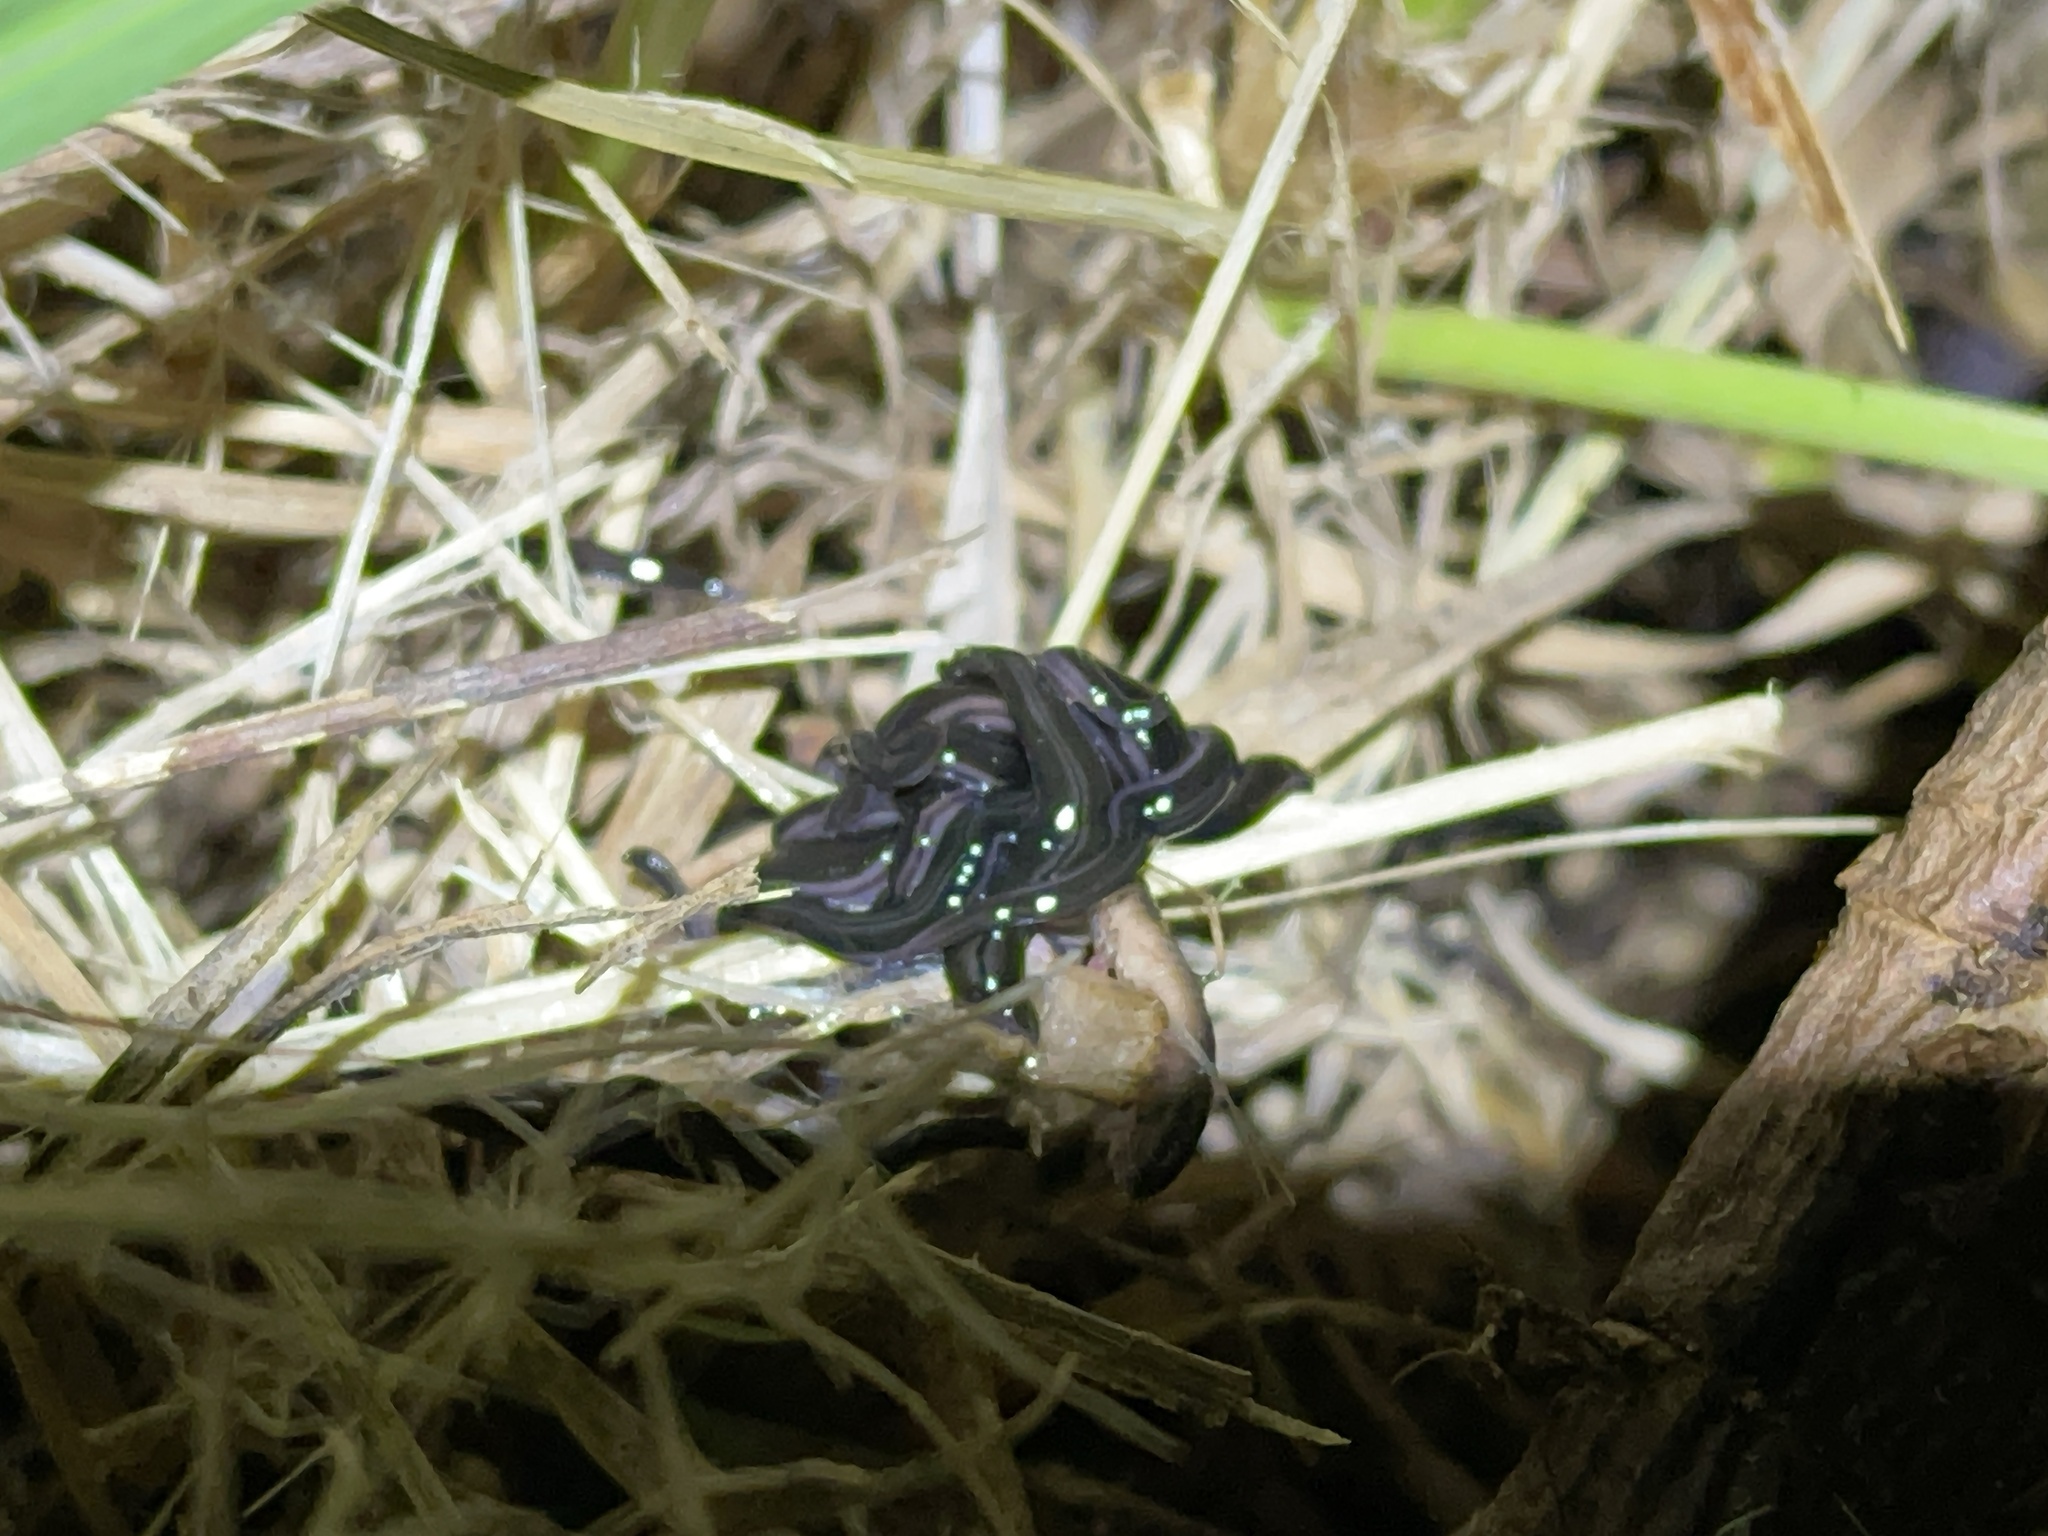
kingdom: Animalia
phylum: Platyhelminthes
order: Tricladida
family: Geoplanidae
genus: Parakontikia
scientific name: Parakontikia ventrolineata
